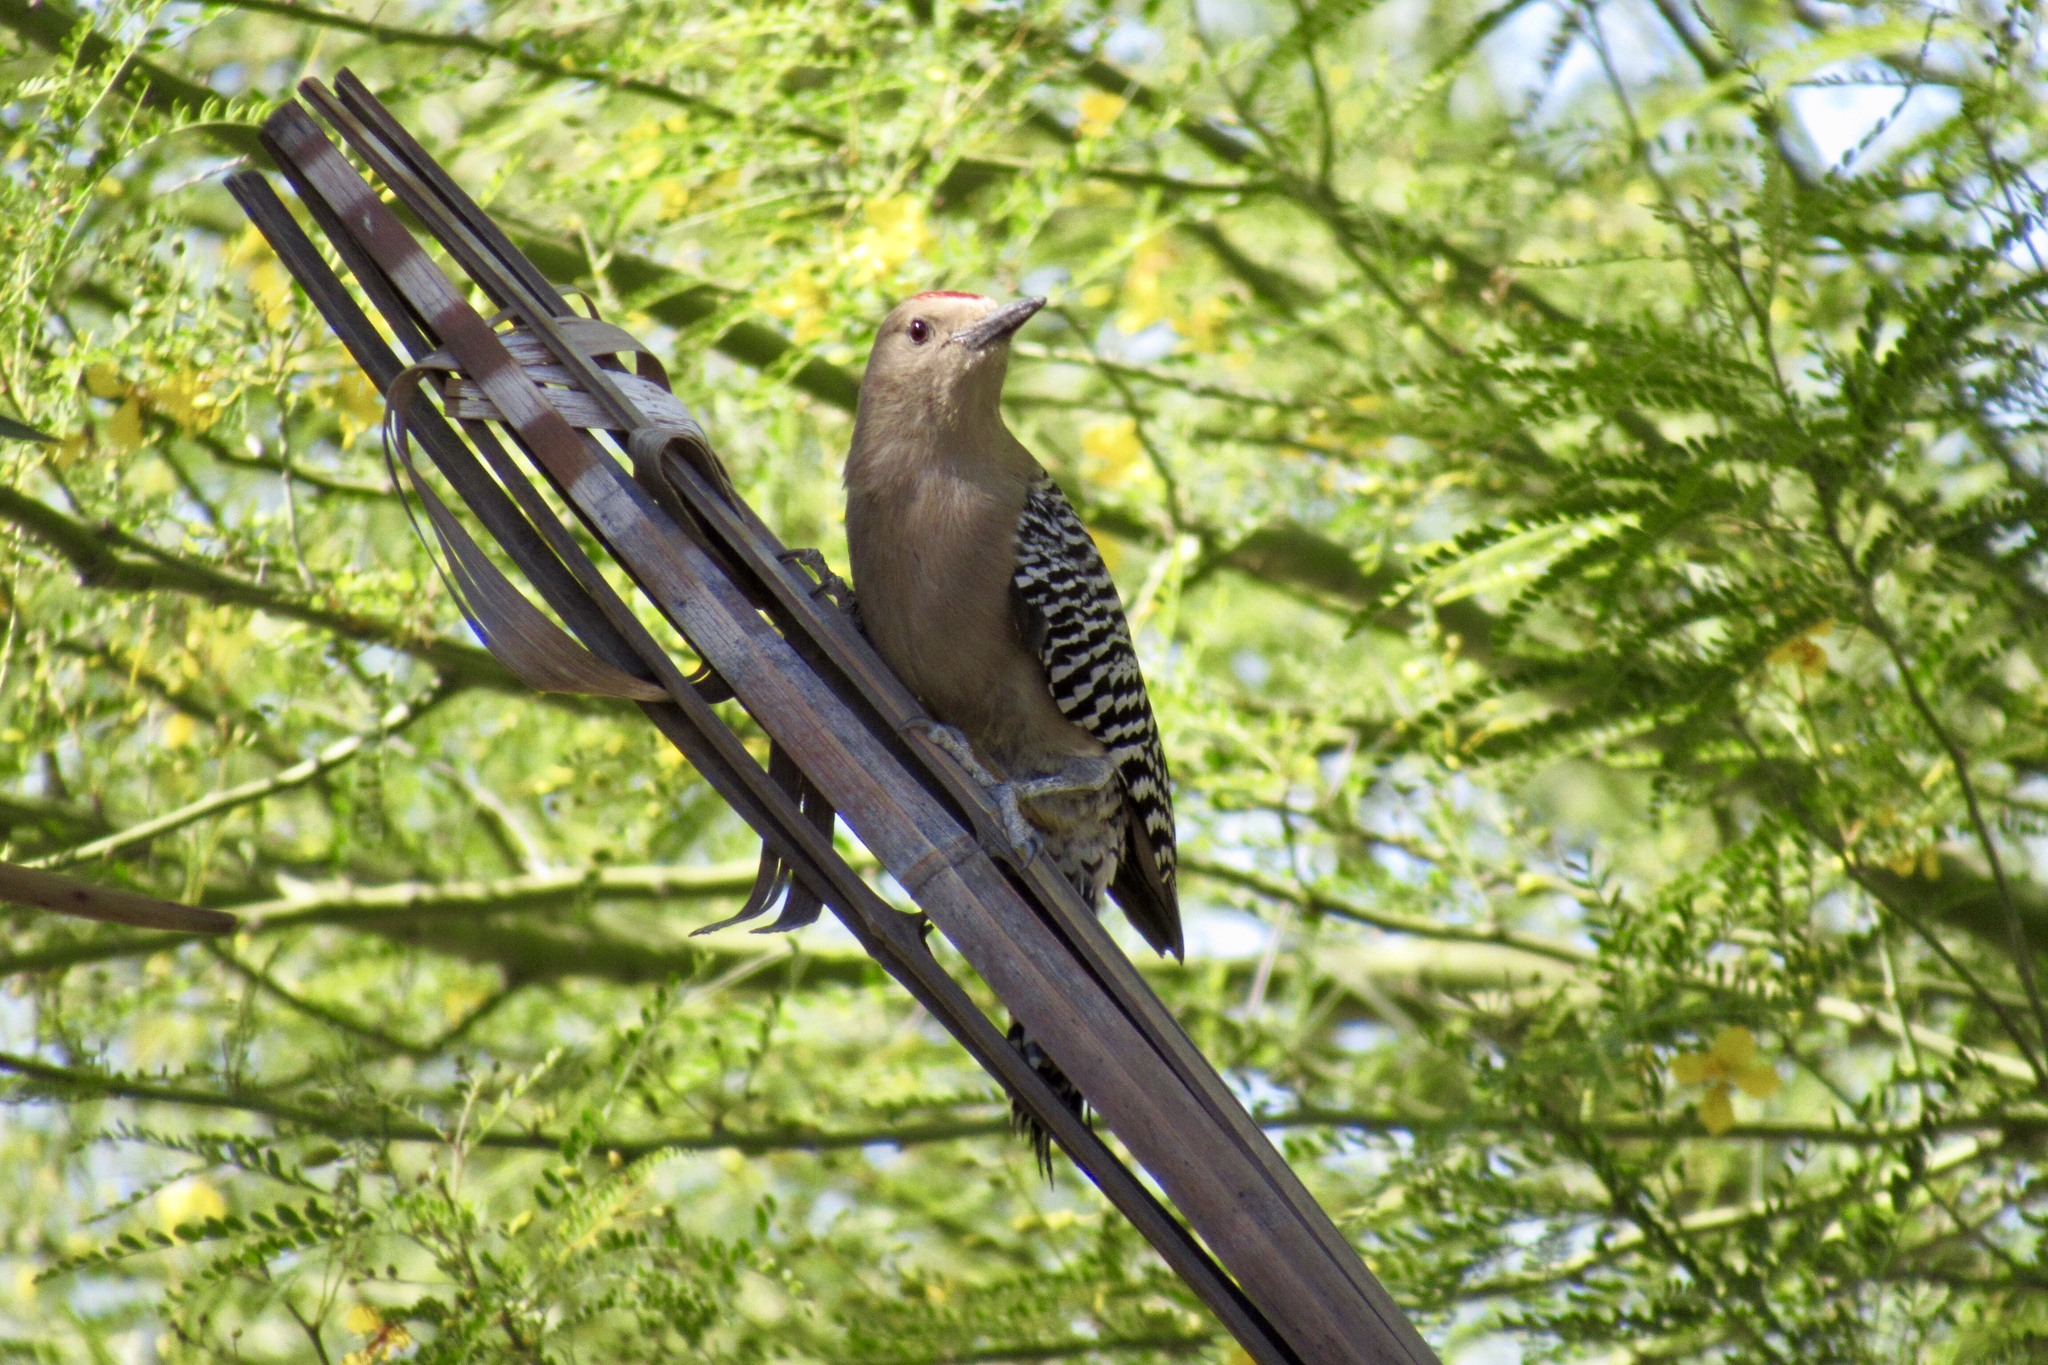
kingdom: Animalia
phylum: Chordata
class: Aves
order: Piciformes
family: Picidae
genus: Melanerpes
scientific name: Melanerpes uropygialis
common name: Gila woodpecker
